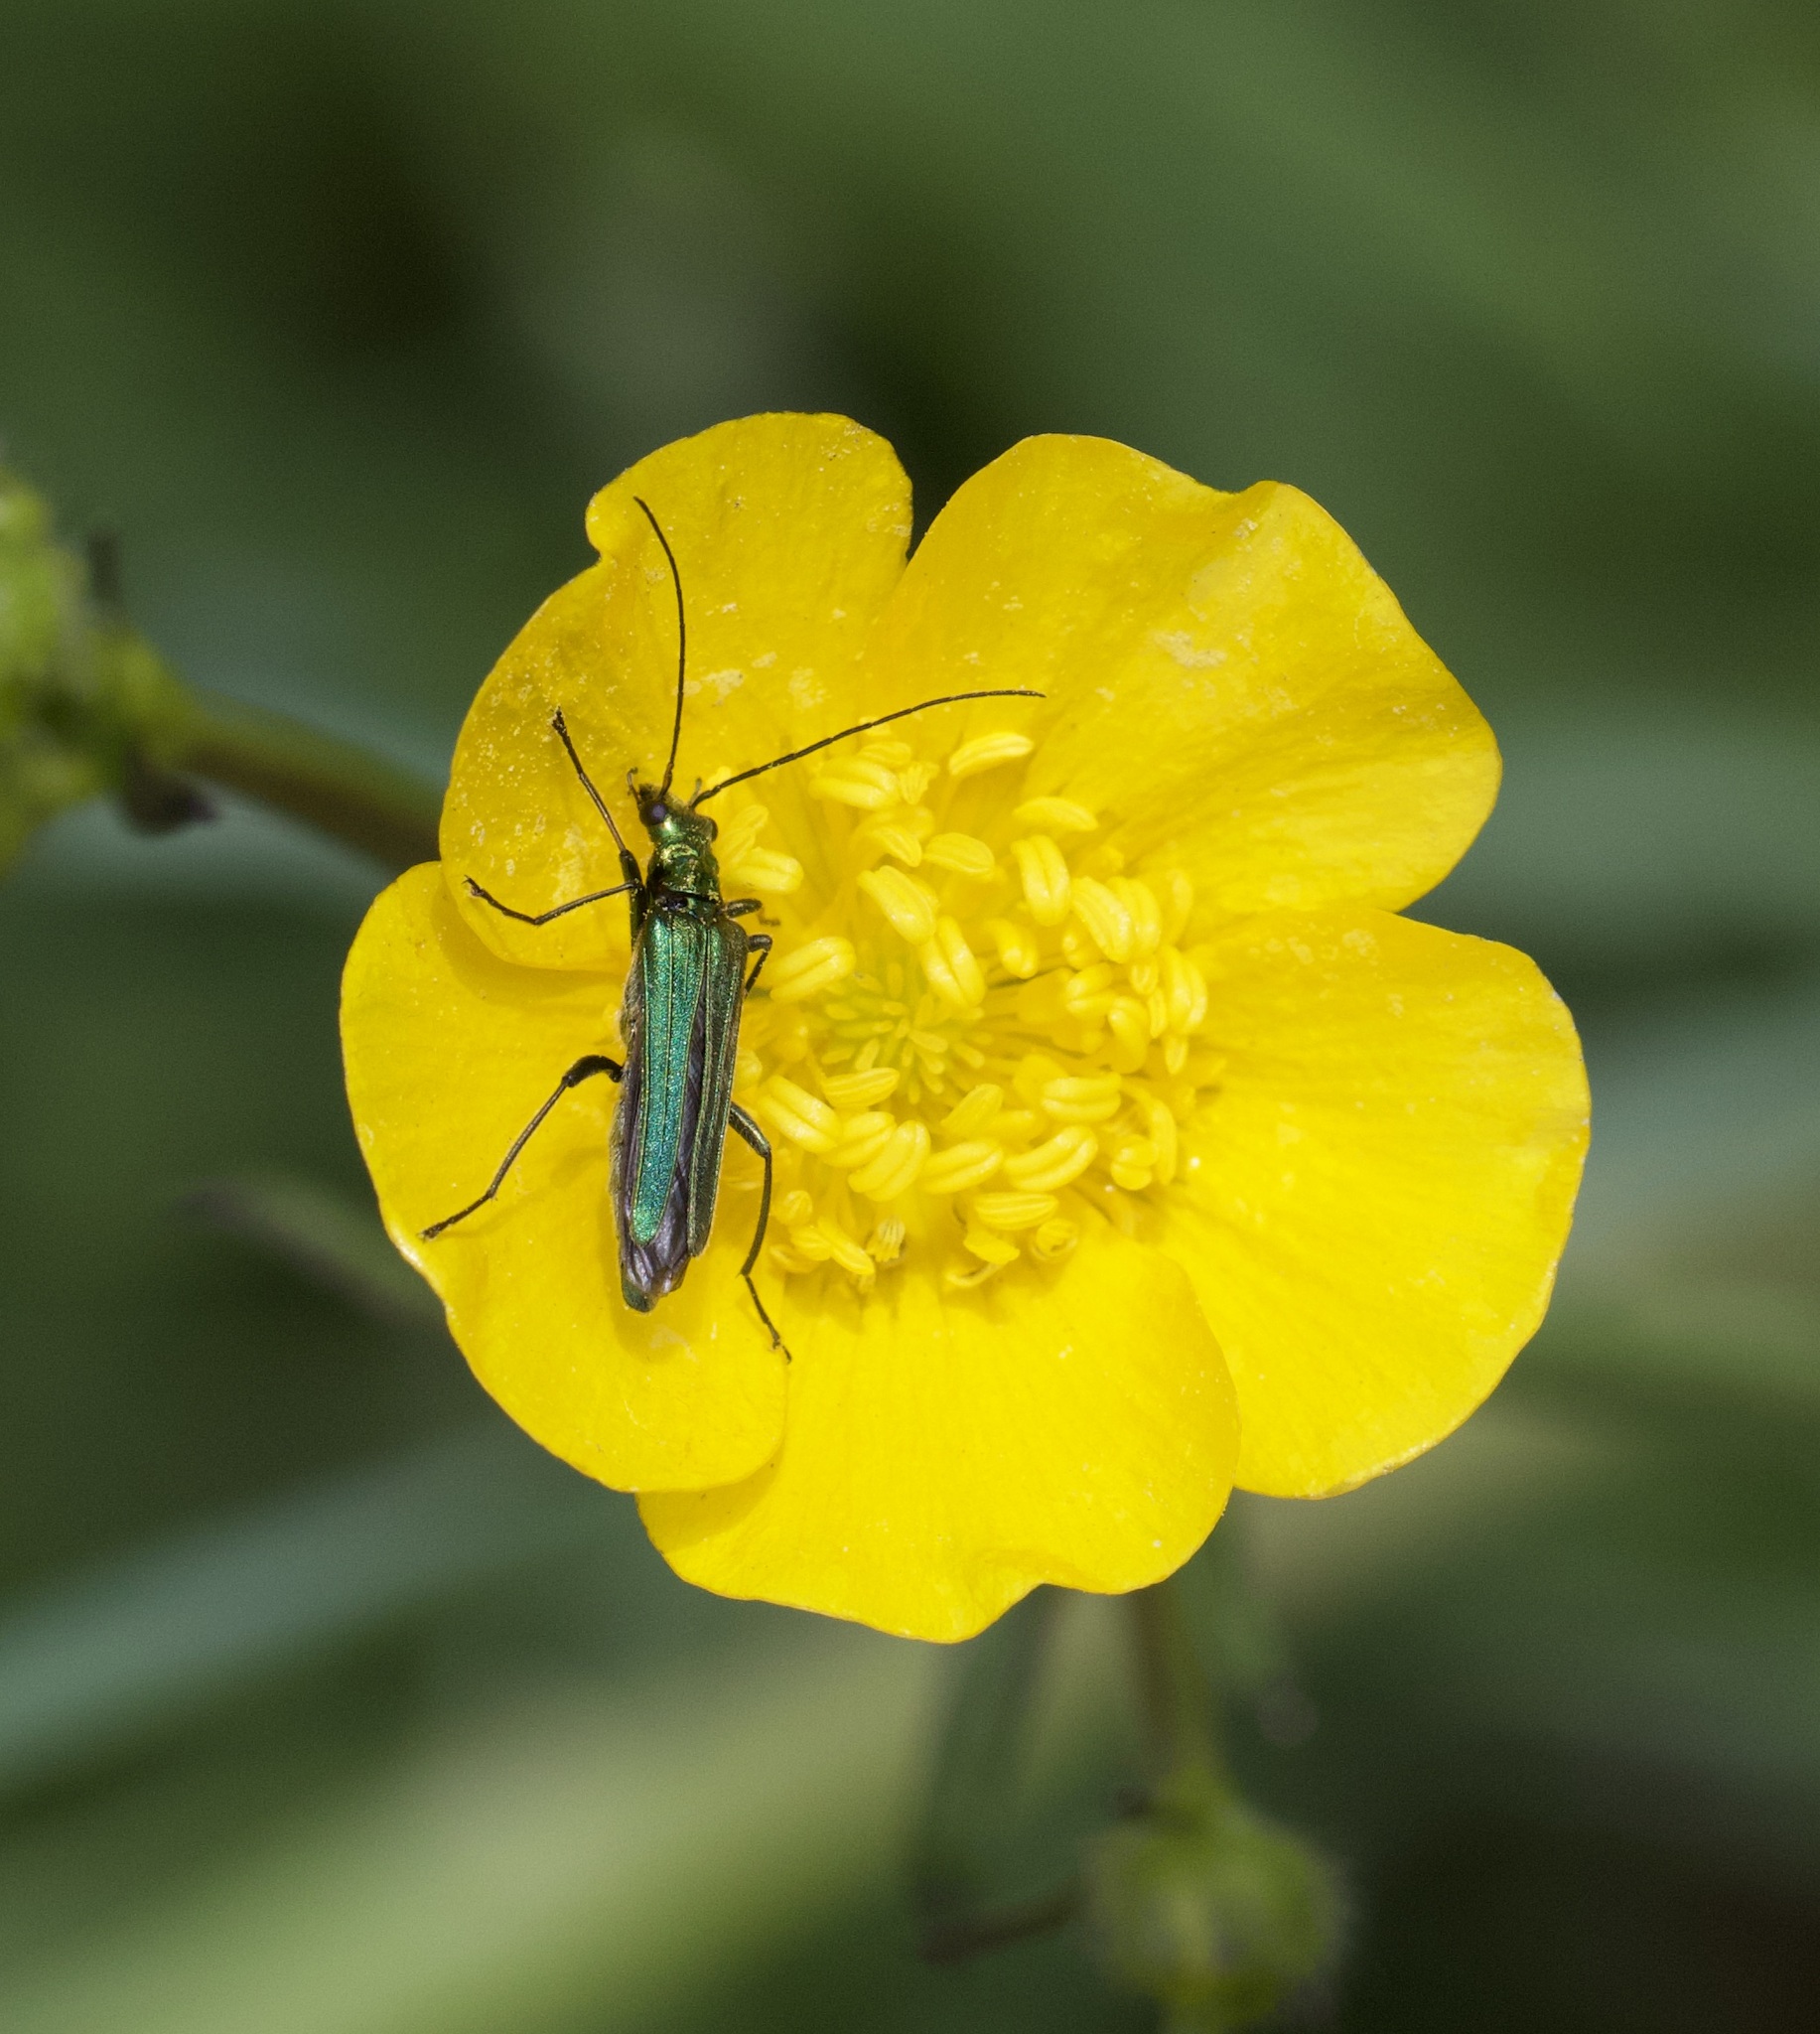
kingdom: Animalia
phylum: Arthropoda
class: Insecta
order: Coleoptera
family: Oedemeridae
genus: Oedemera
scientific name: Oedemera nobilis
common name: Swollen-thighed beetle
